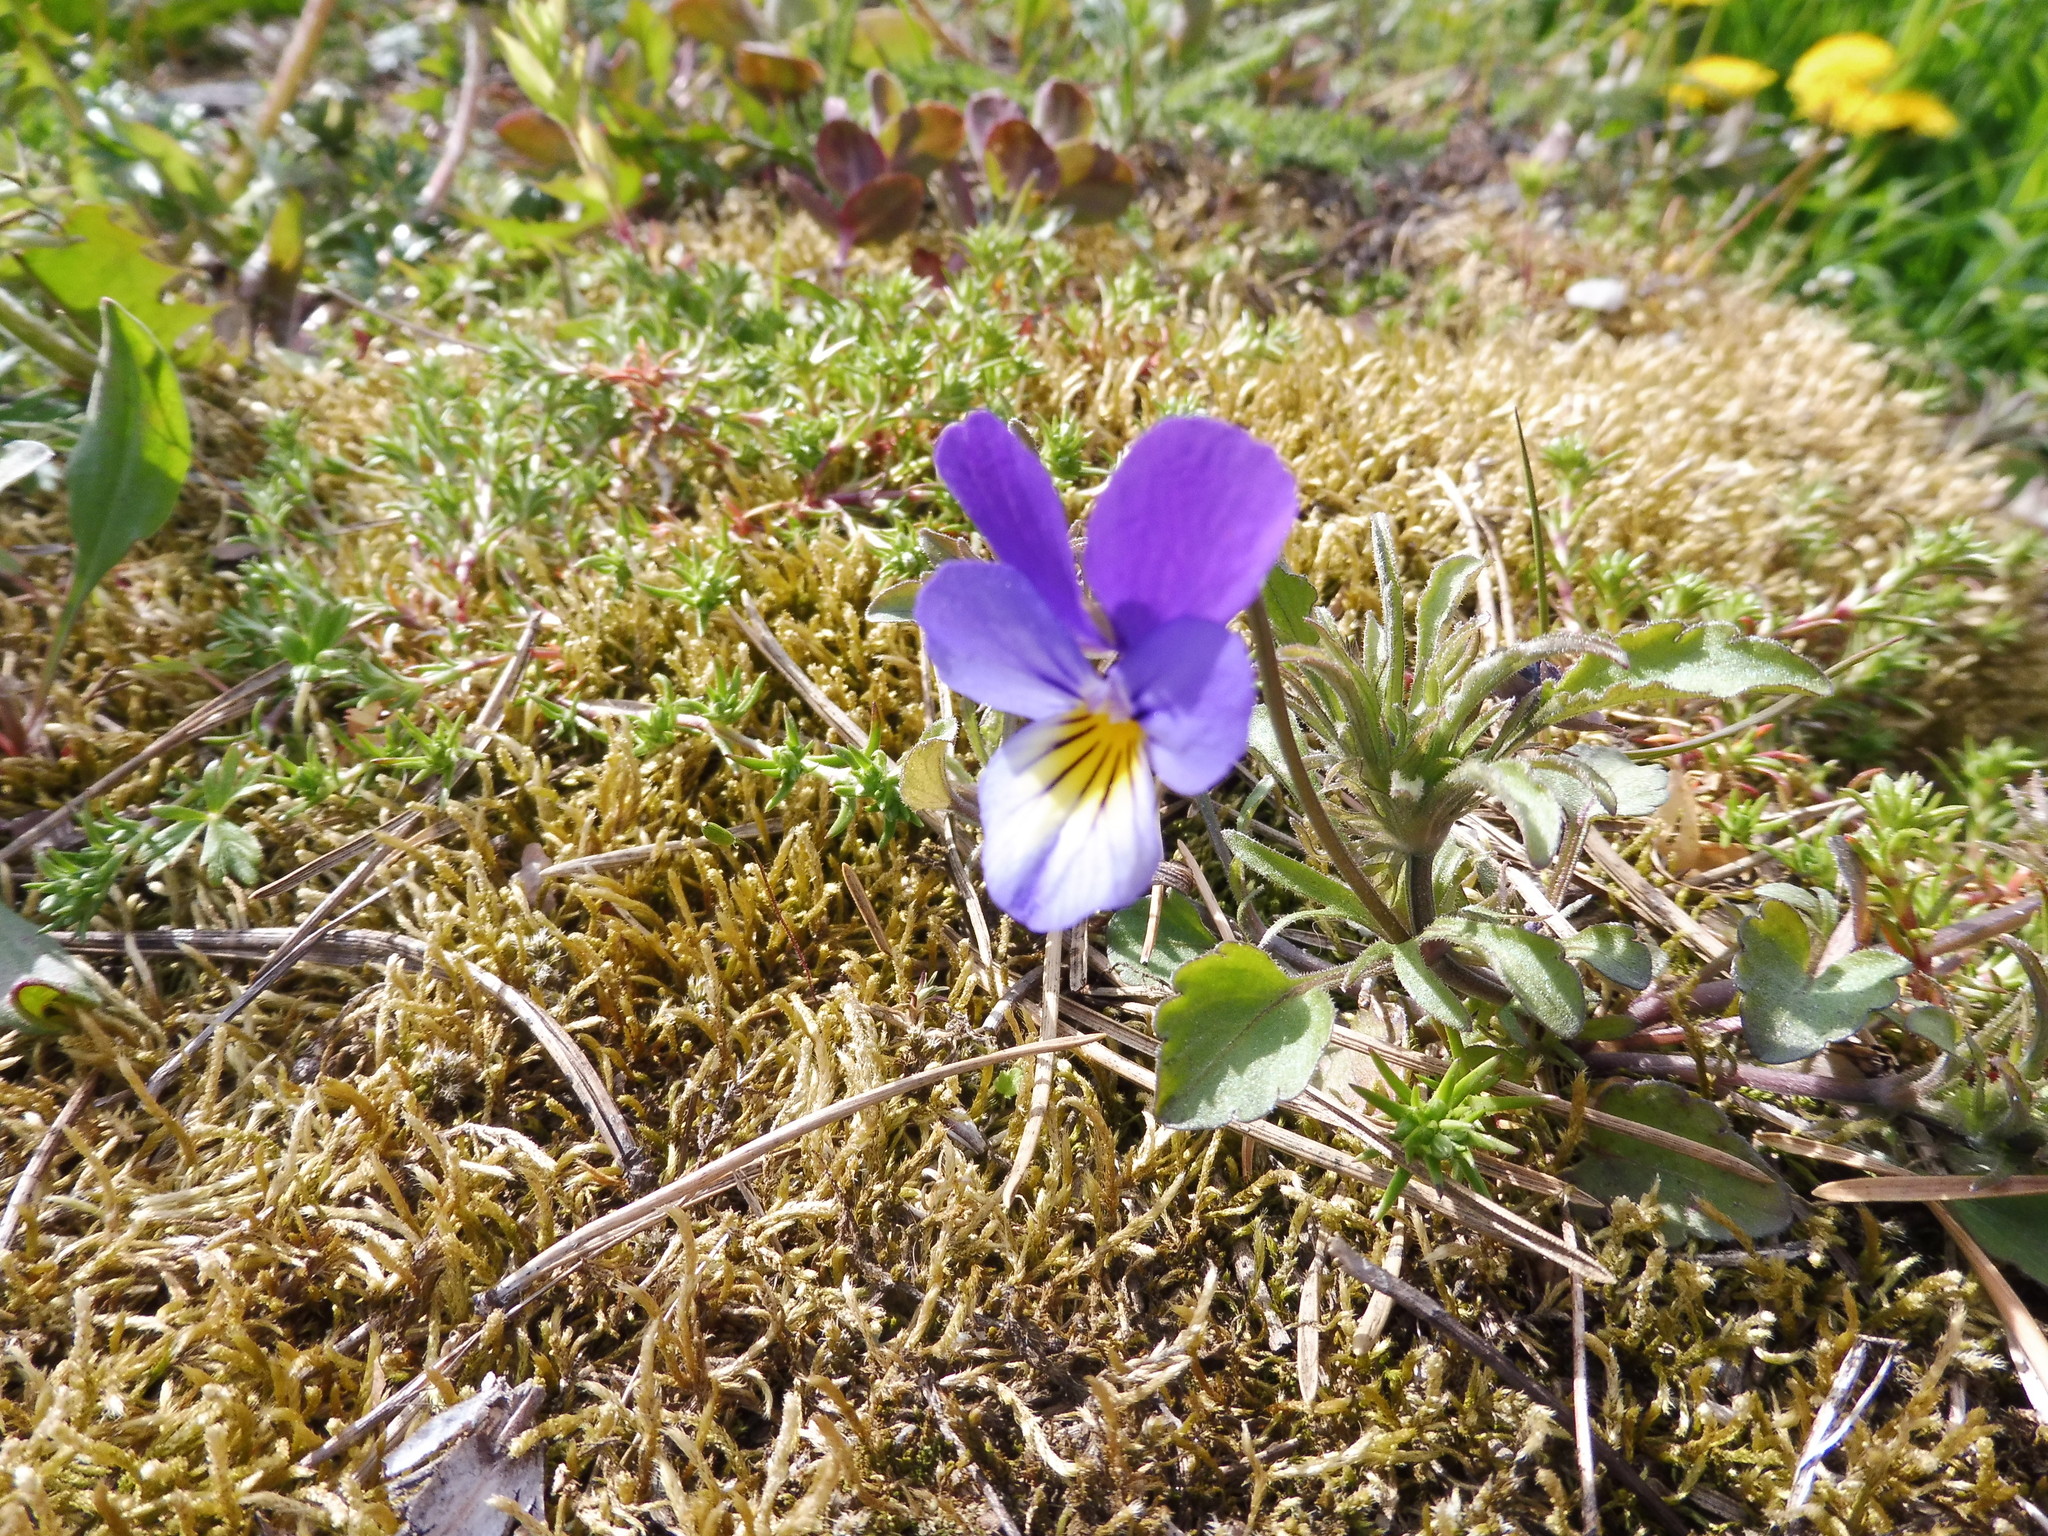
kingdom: Plantae
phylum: Tracheophyta
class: Magnoliopsida
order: Malpighiales
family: Violaceae
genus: Viola
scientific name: Viola tricolor
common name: Pansy
